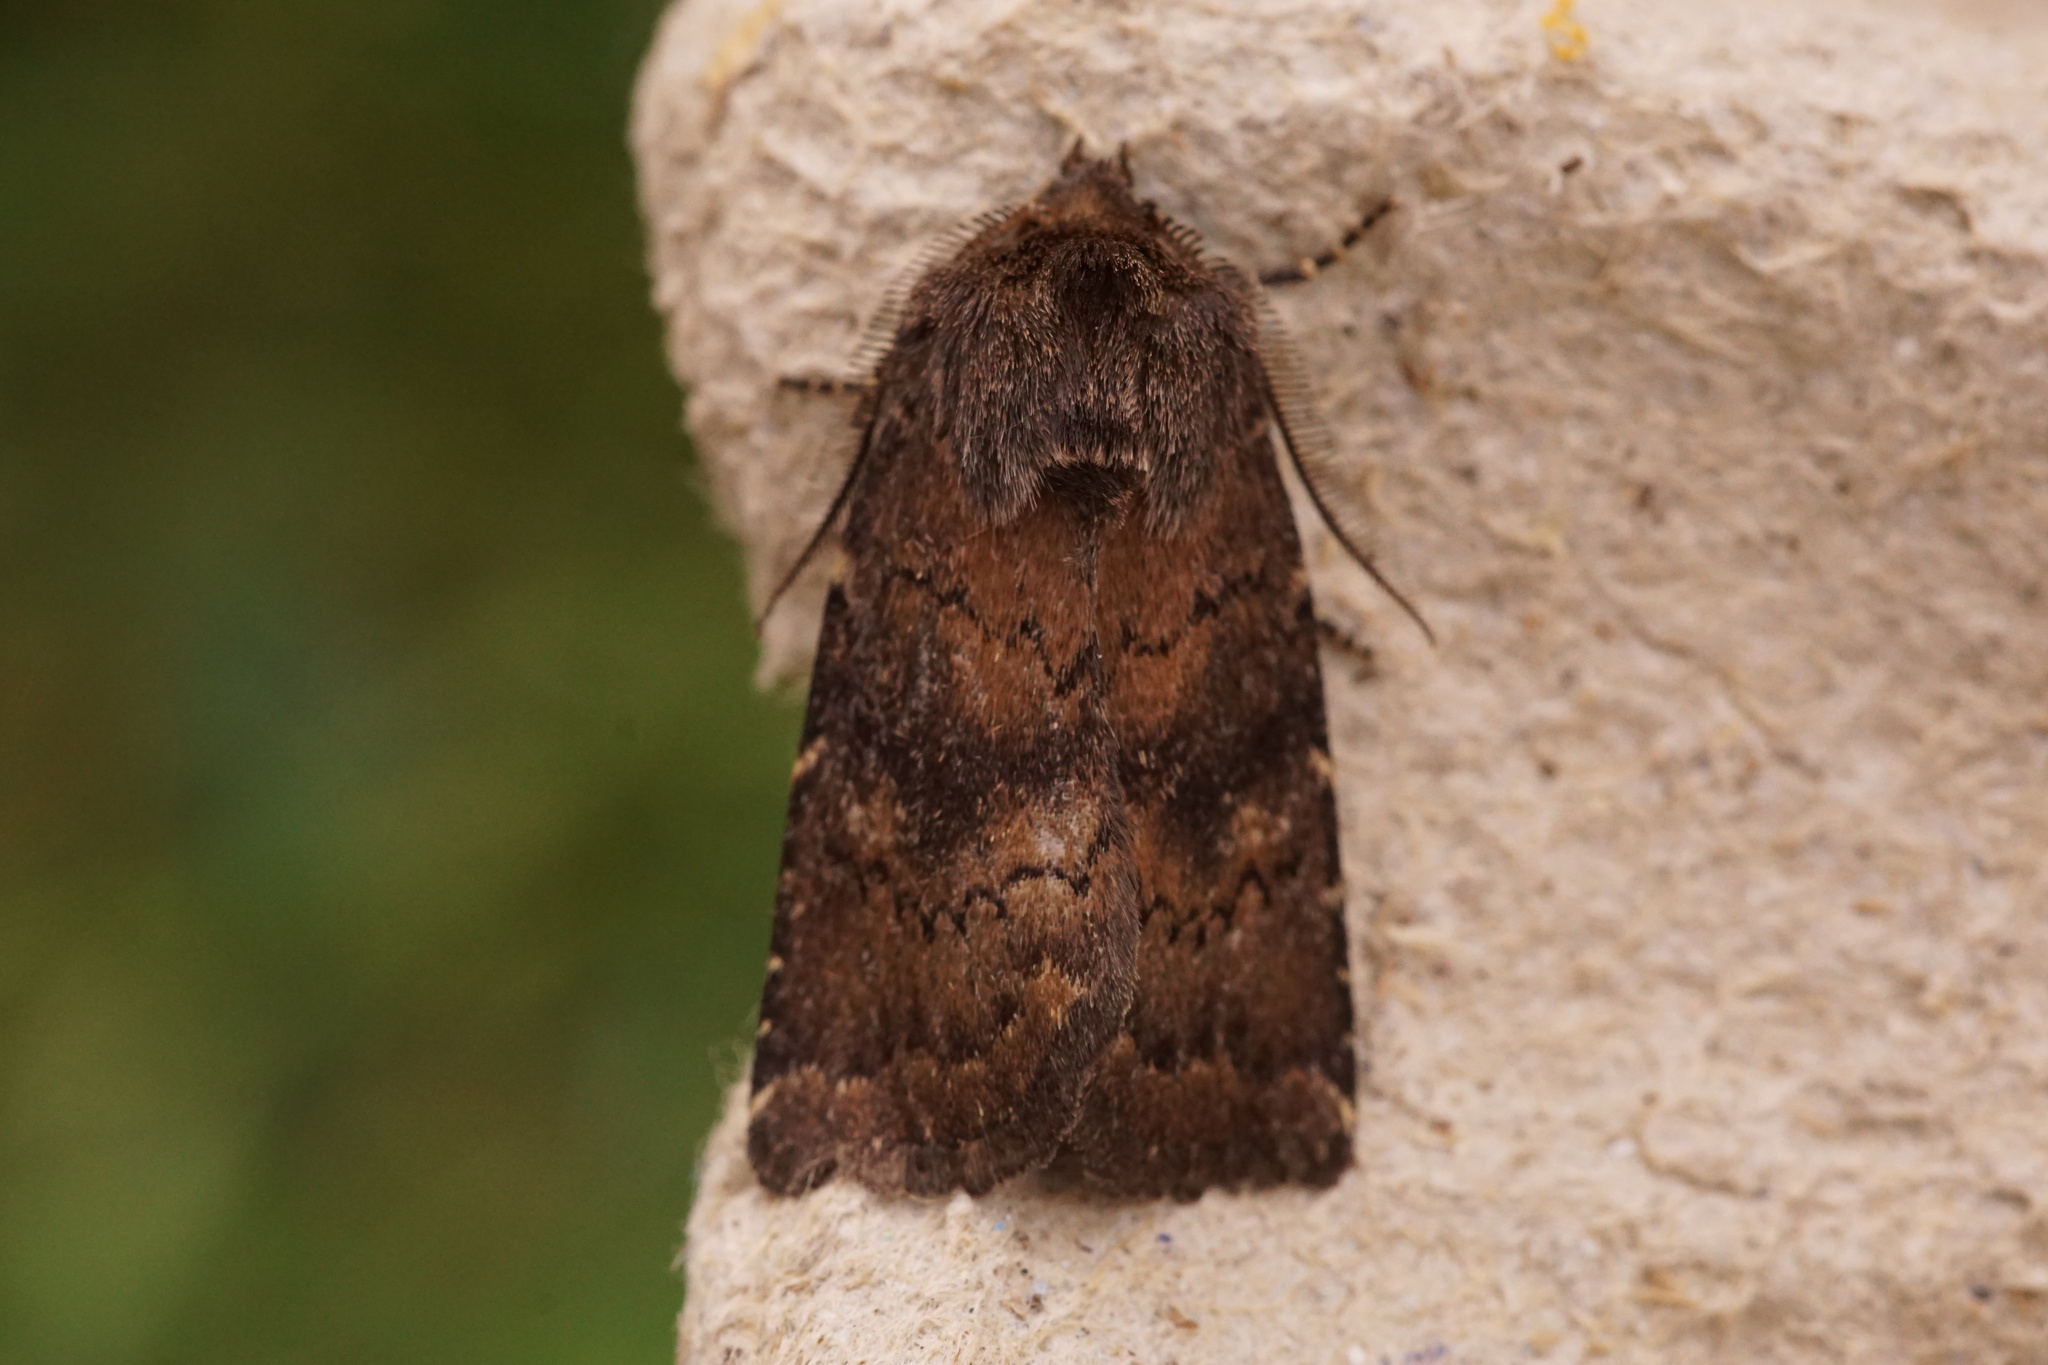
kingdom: Animalia
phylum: Arthropoda
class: Insecta
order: Lepidoptera
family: Noctuidae
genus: Charanyca
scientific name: Charanyca ferruginea
